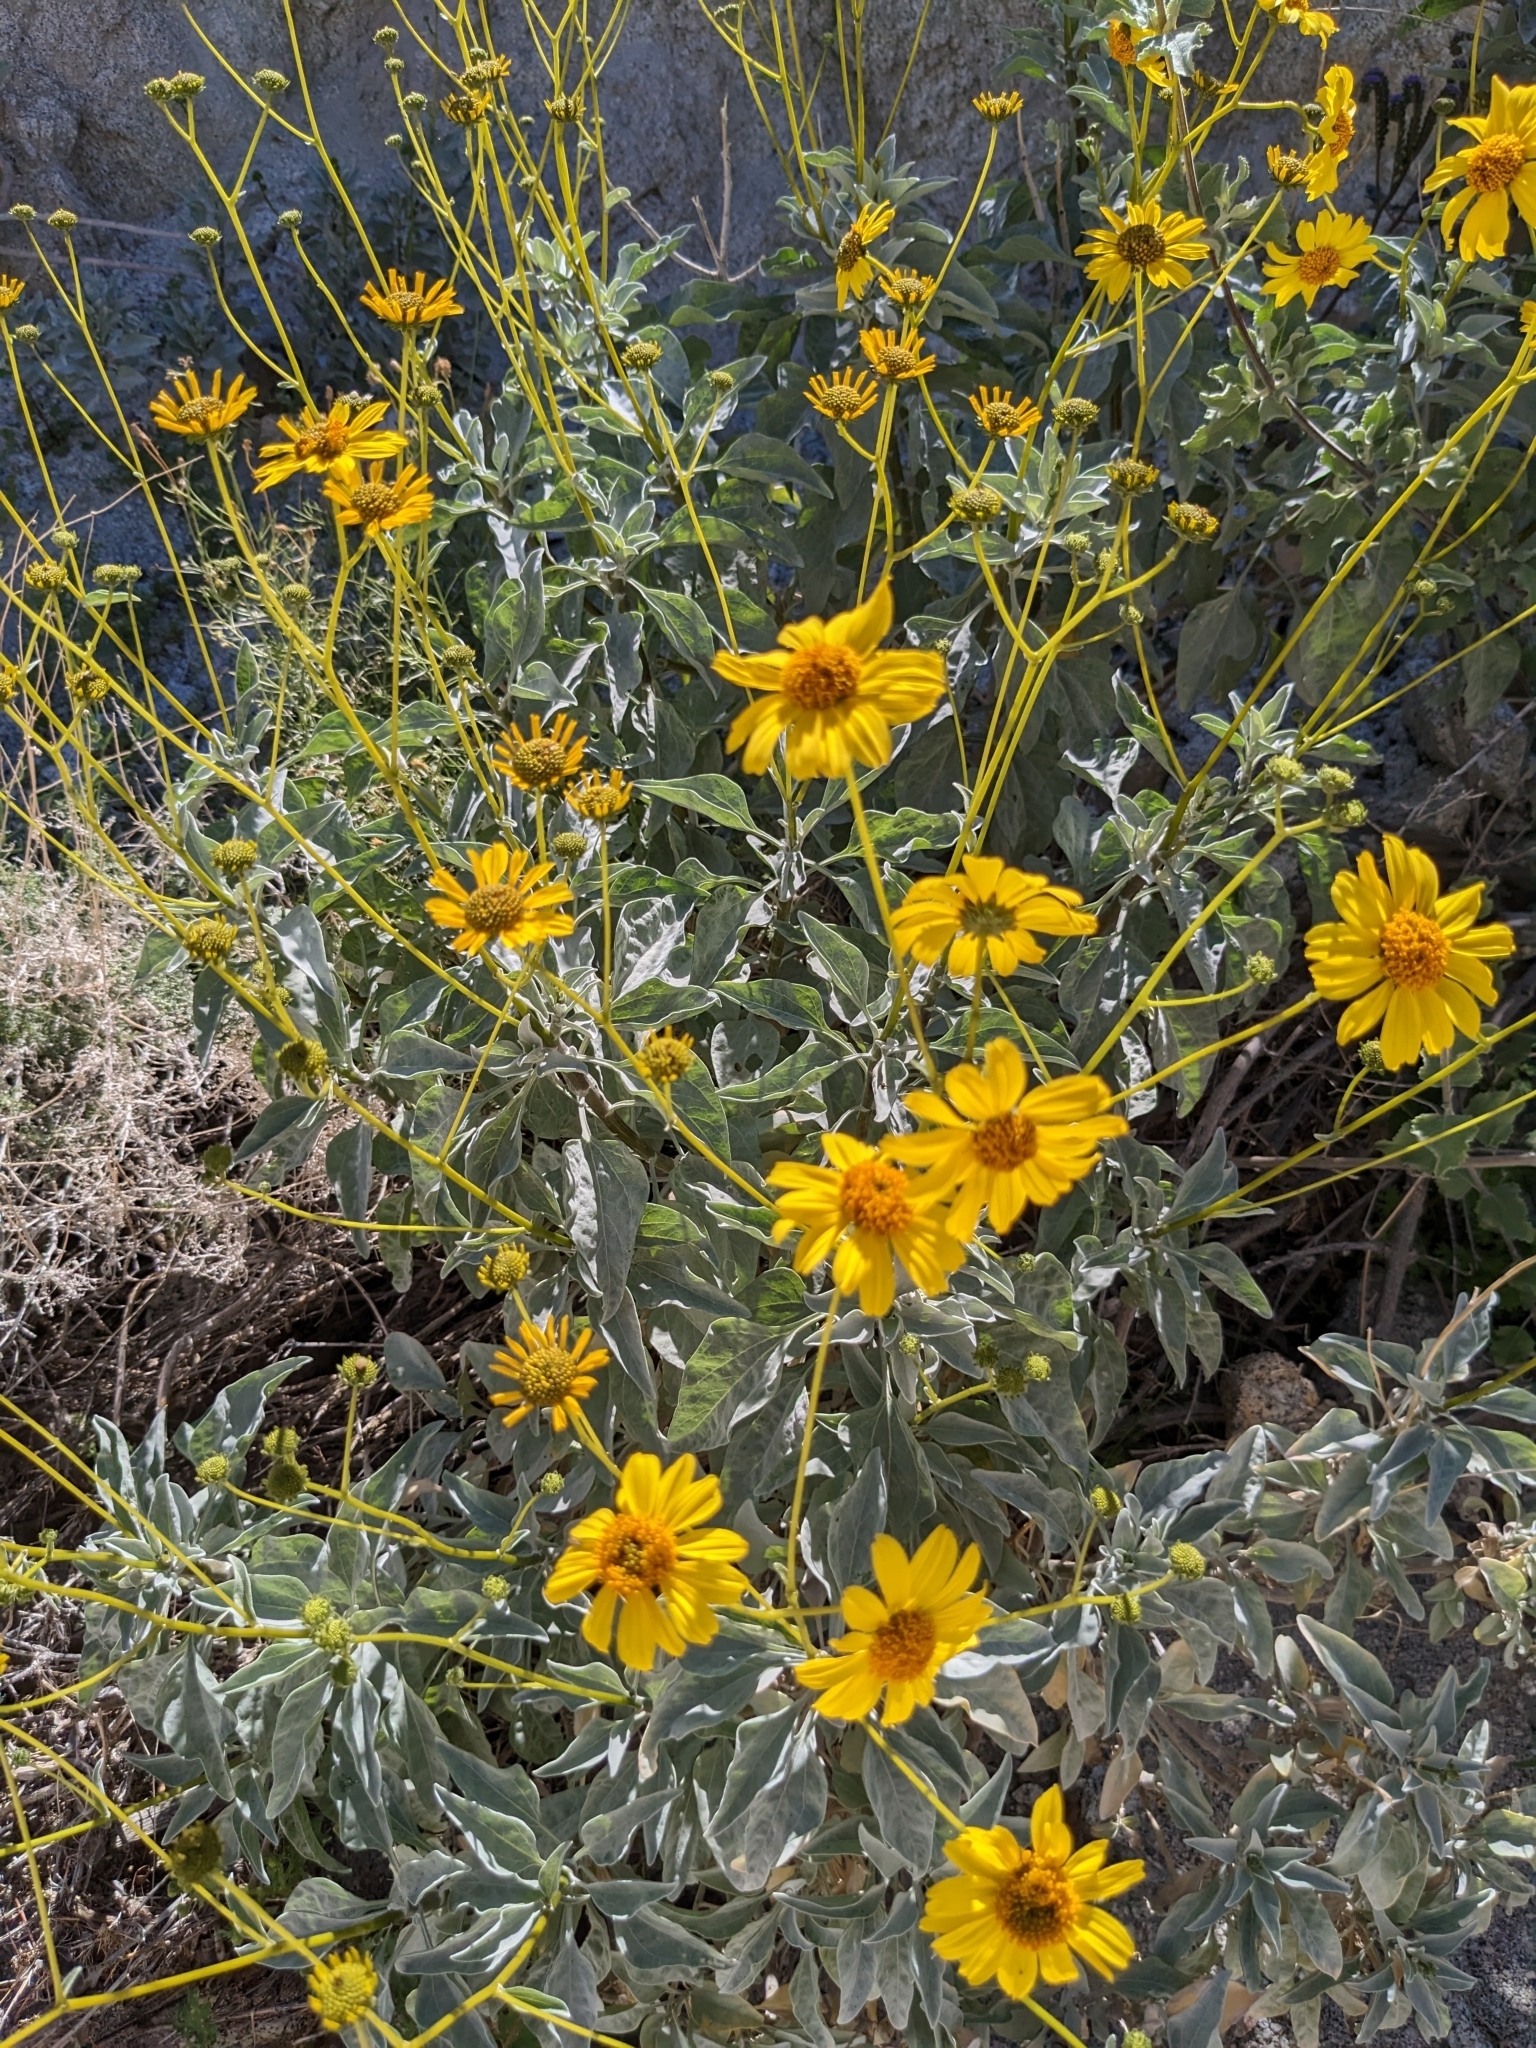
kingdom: Plantae
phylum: Tracheophyta
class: Magnoliopsida
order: Asterales
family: Asteraceae
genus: Encelia
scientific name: Encelia farinosa
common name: Brittlebush
